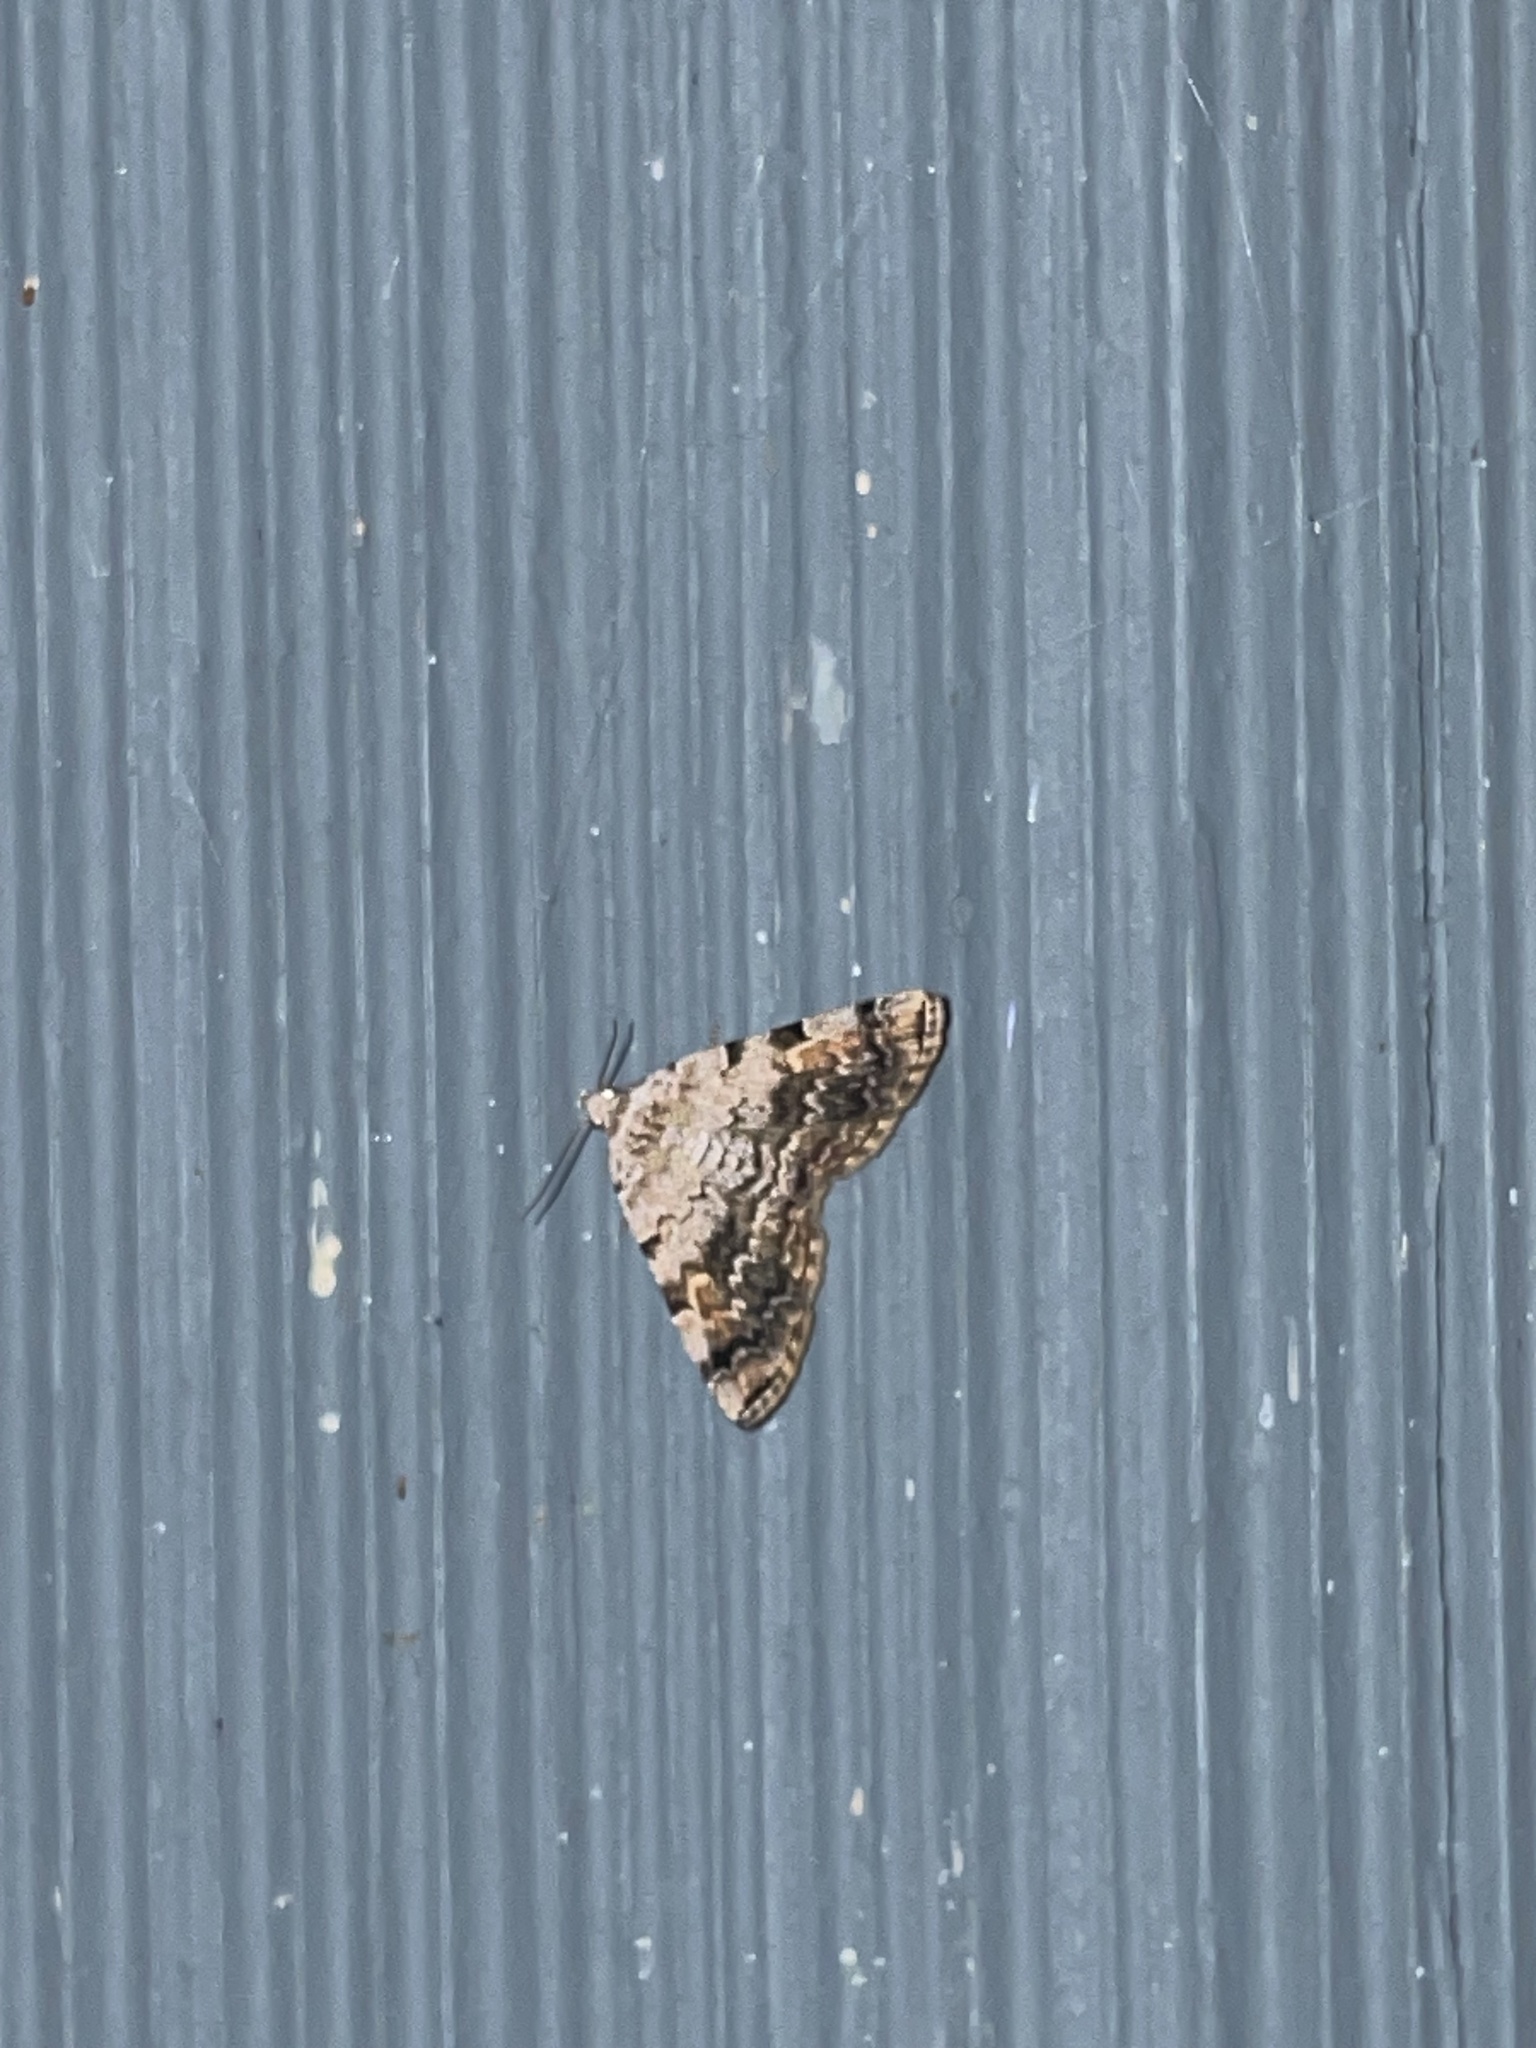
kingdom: Animalia
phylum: Arthropoda
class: Insecta
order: Lepidoptera
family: Erebidae
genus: Idia
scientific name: Idia americalis
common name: American idia moth
